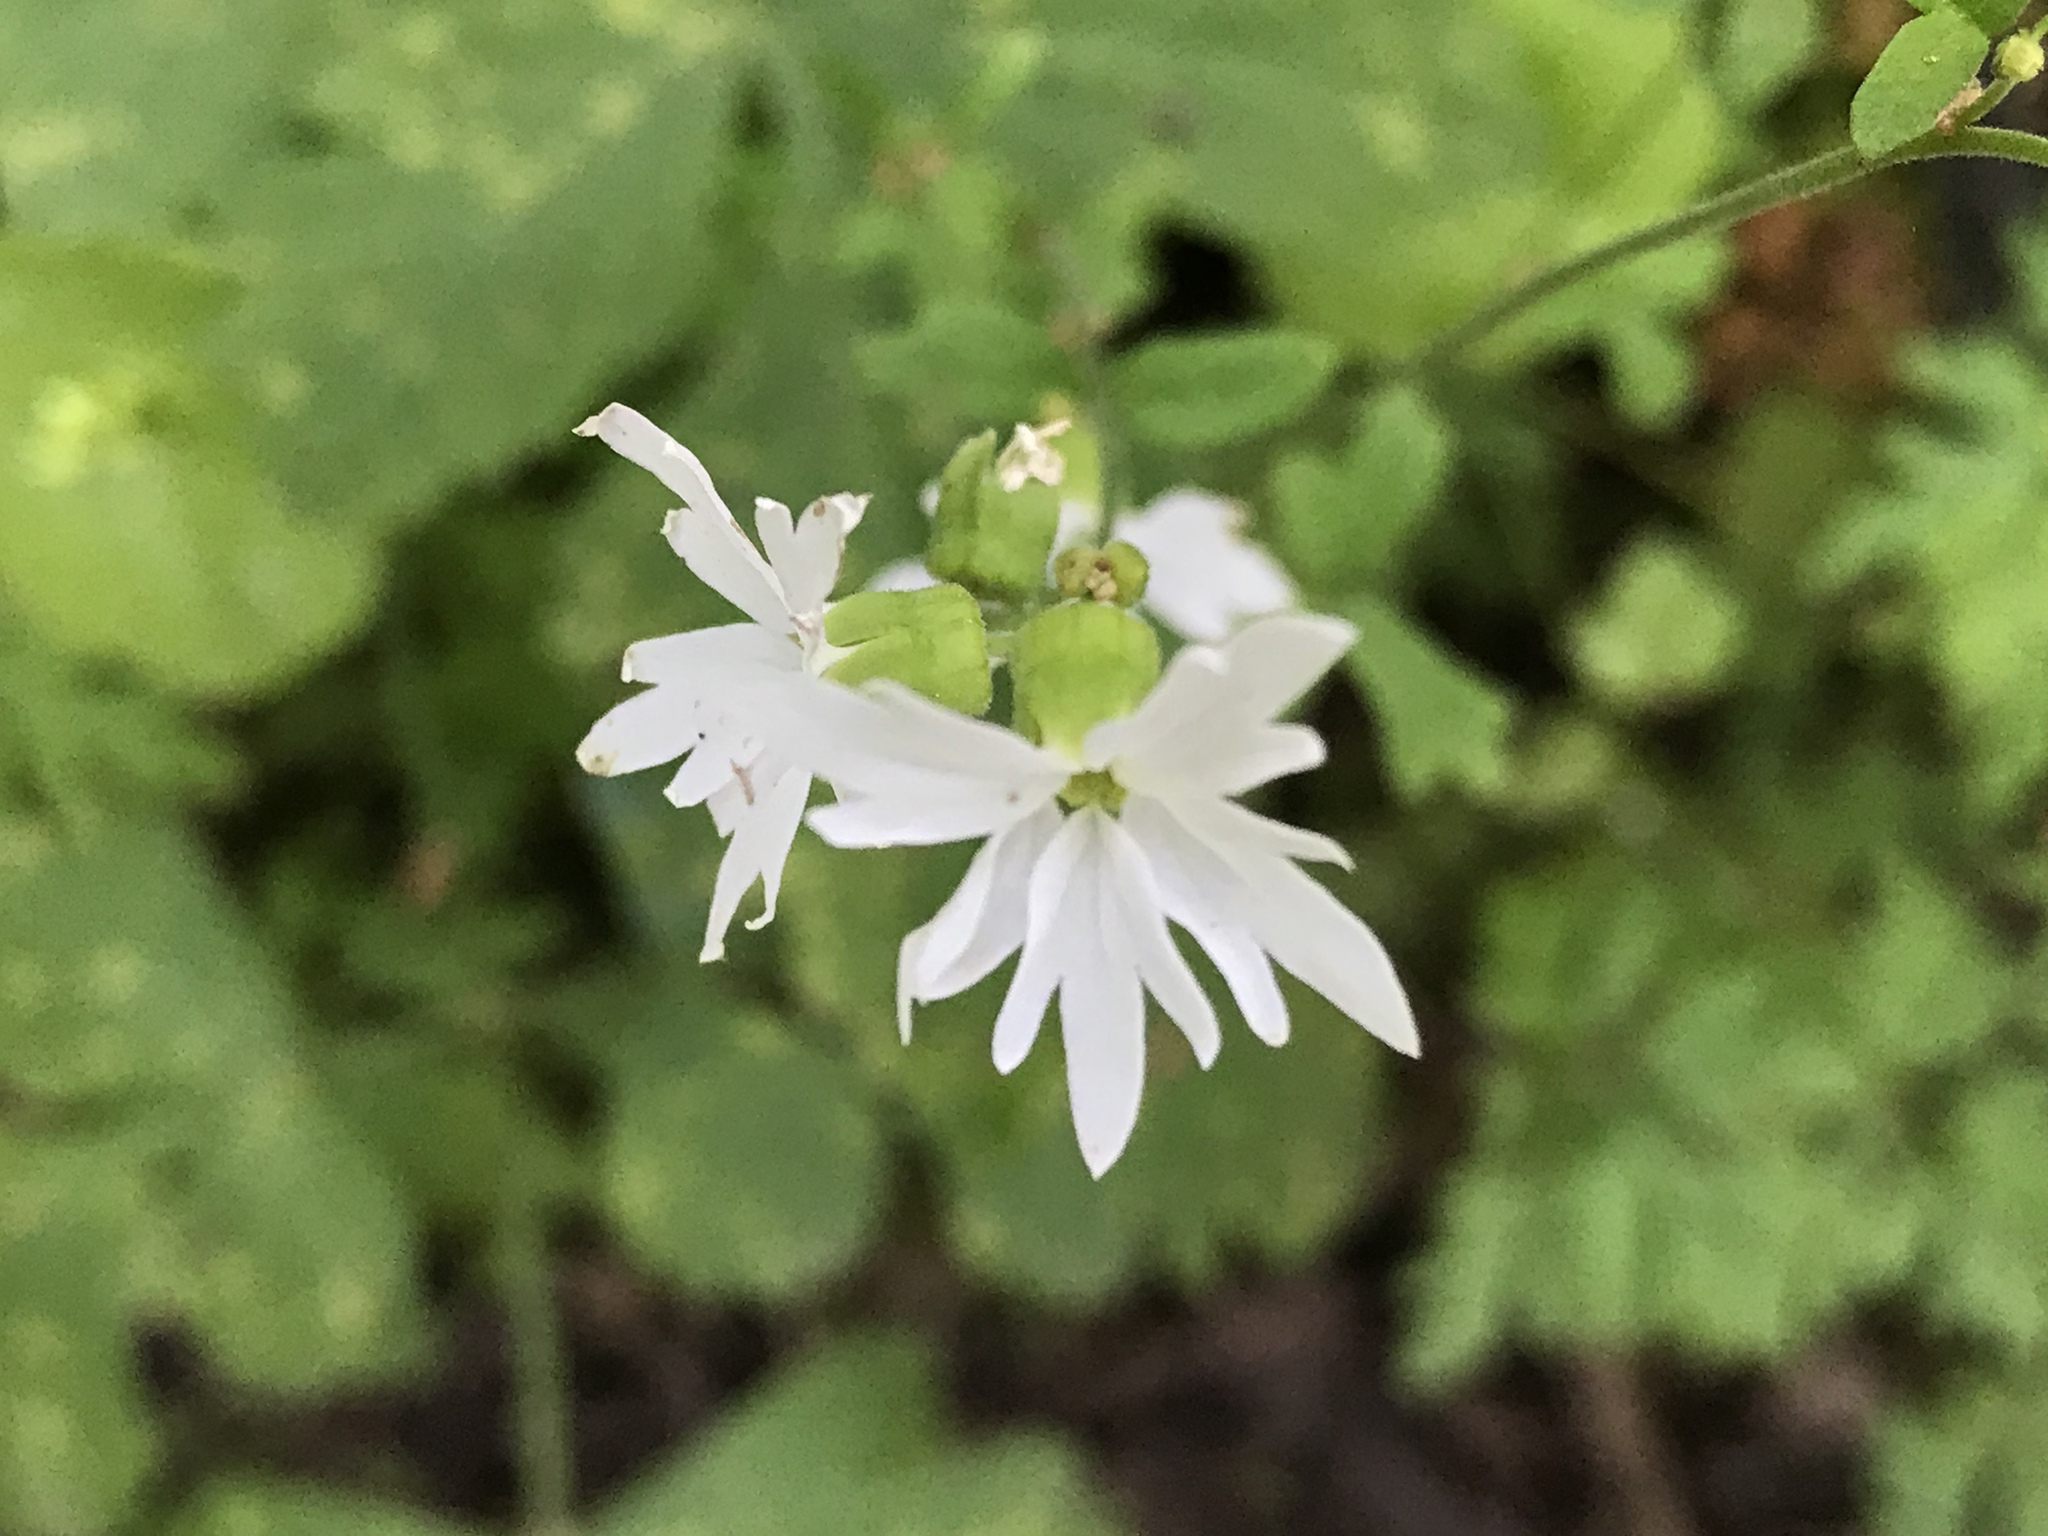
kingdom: Plantae
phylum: Tracheophyta
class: Magnoliopsida
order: Saxifragales
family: Saxifragaceae
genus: Lithophragma
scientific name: Lithophragma heterophyllum
